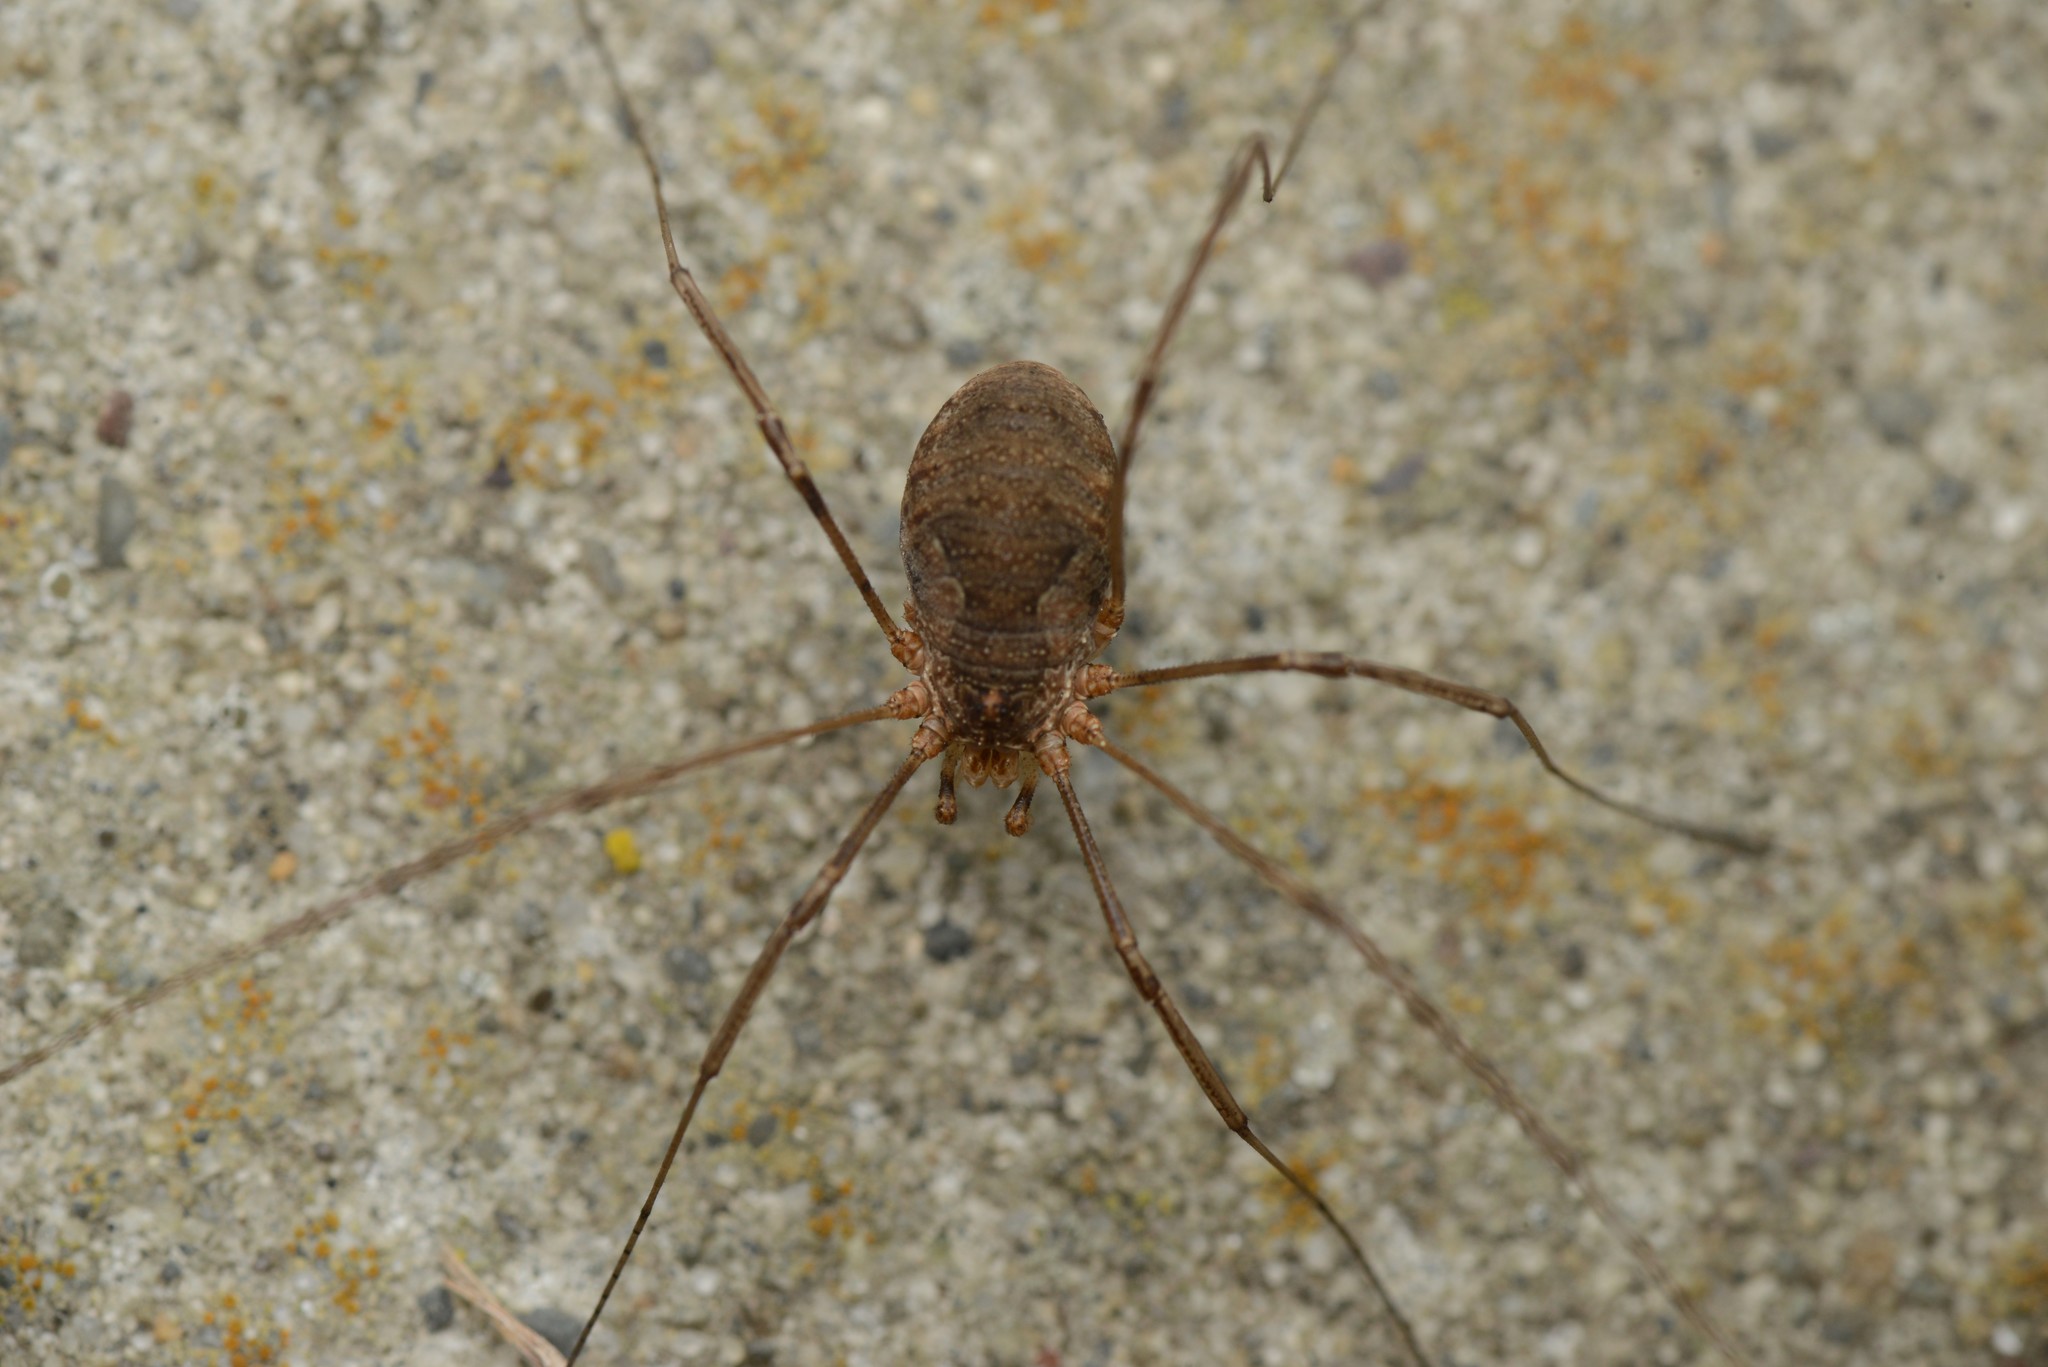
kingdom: Animalia
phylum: Arthropoda
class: Arachnida
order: Opiliones
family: Phalangiidae
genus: Phalangium
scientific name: Phalangium opilio
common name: Daddy longleg
